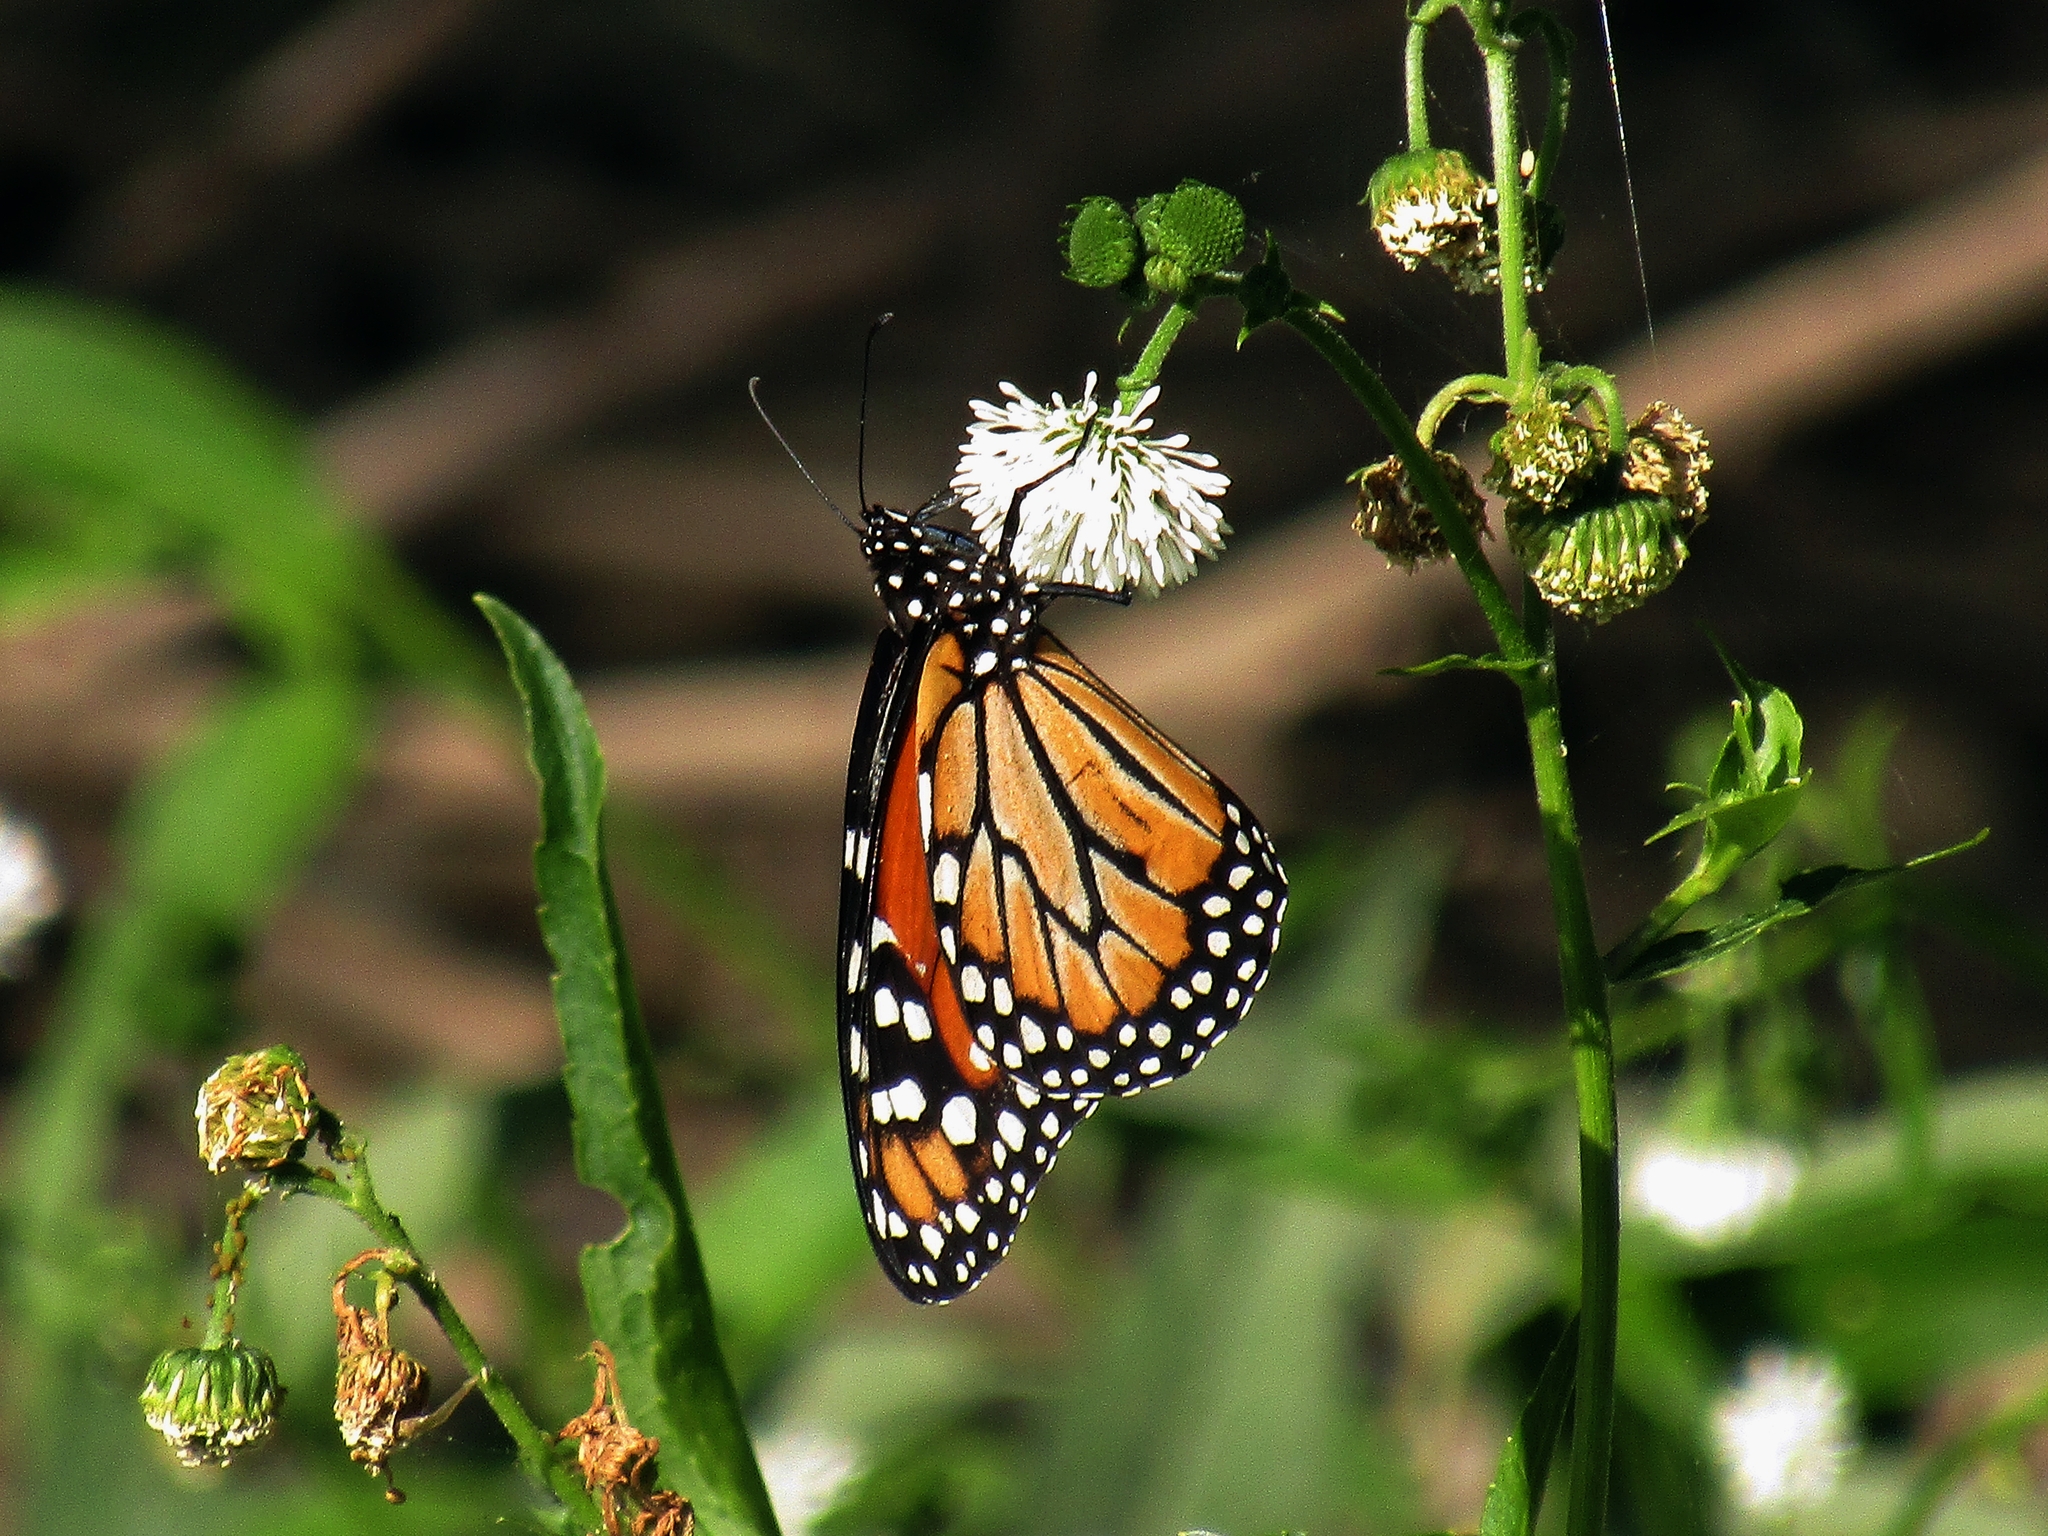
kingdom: Animalia
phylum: Arthropoda
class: Insecta
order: Lepidoptera
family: Nymphalidae
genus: Danaus
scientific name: Danaus erippus
